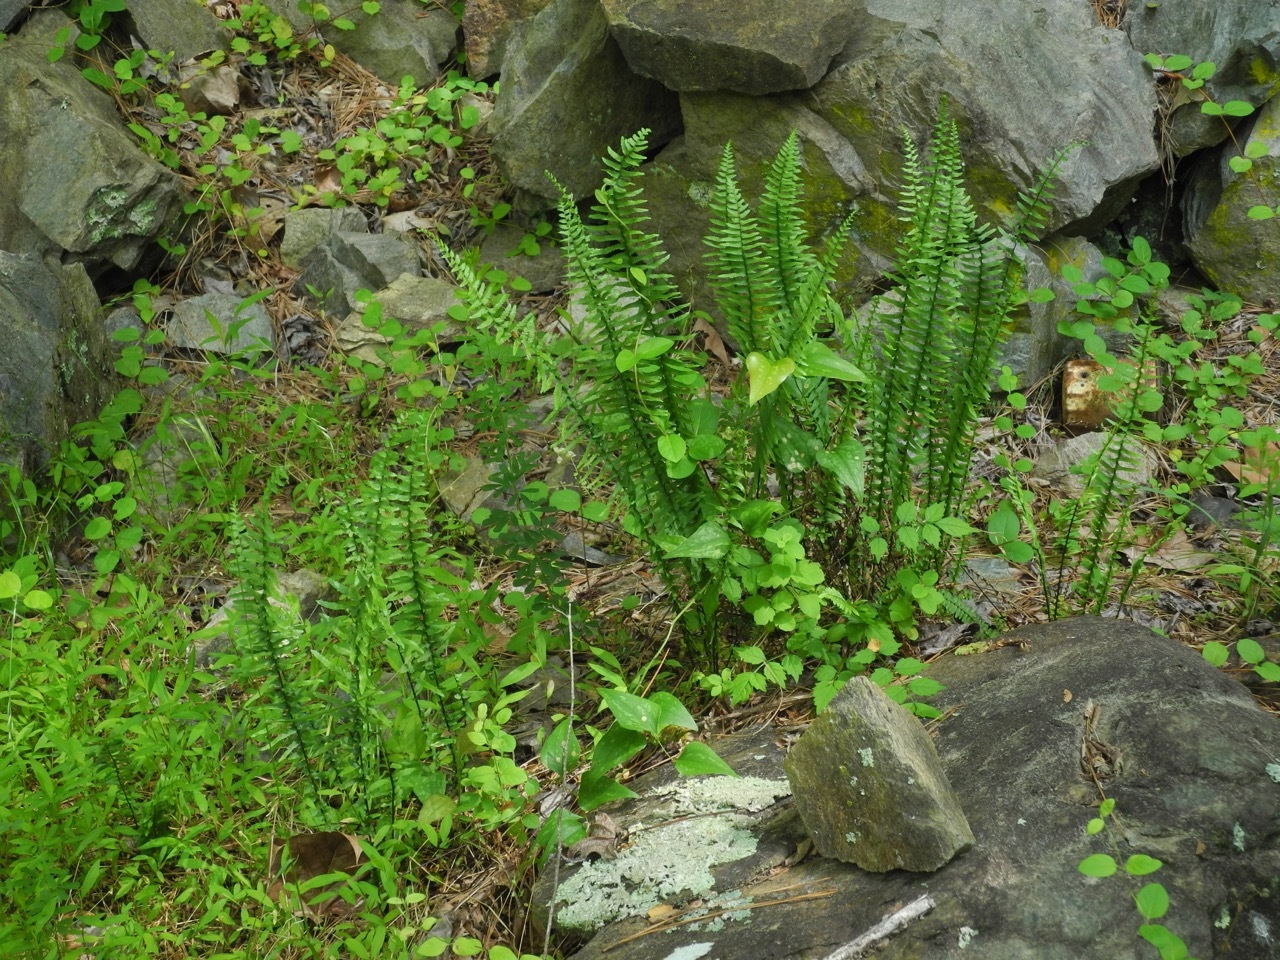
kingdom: Plantae
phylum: Tracheophyta
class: Polypodiopsida
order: Polypodiales
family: Aspleniaceae
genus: Asplenium
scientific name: Asplenium platyneuron
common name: Ebony spleenwort
